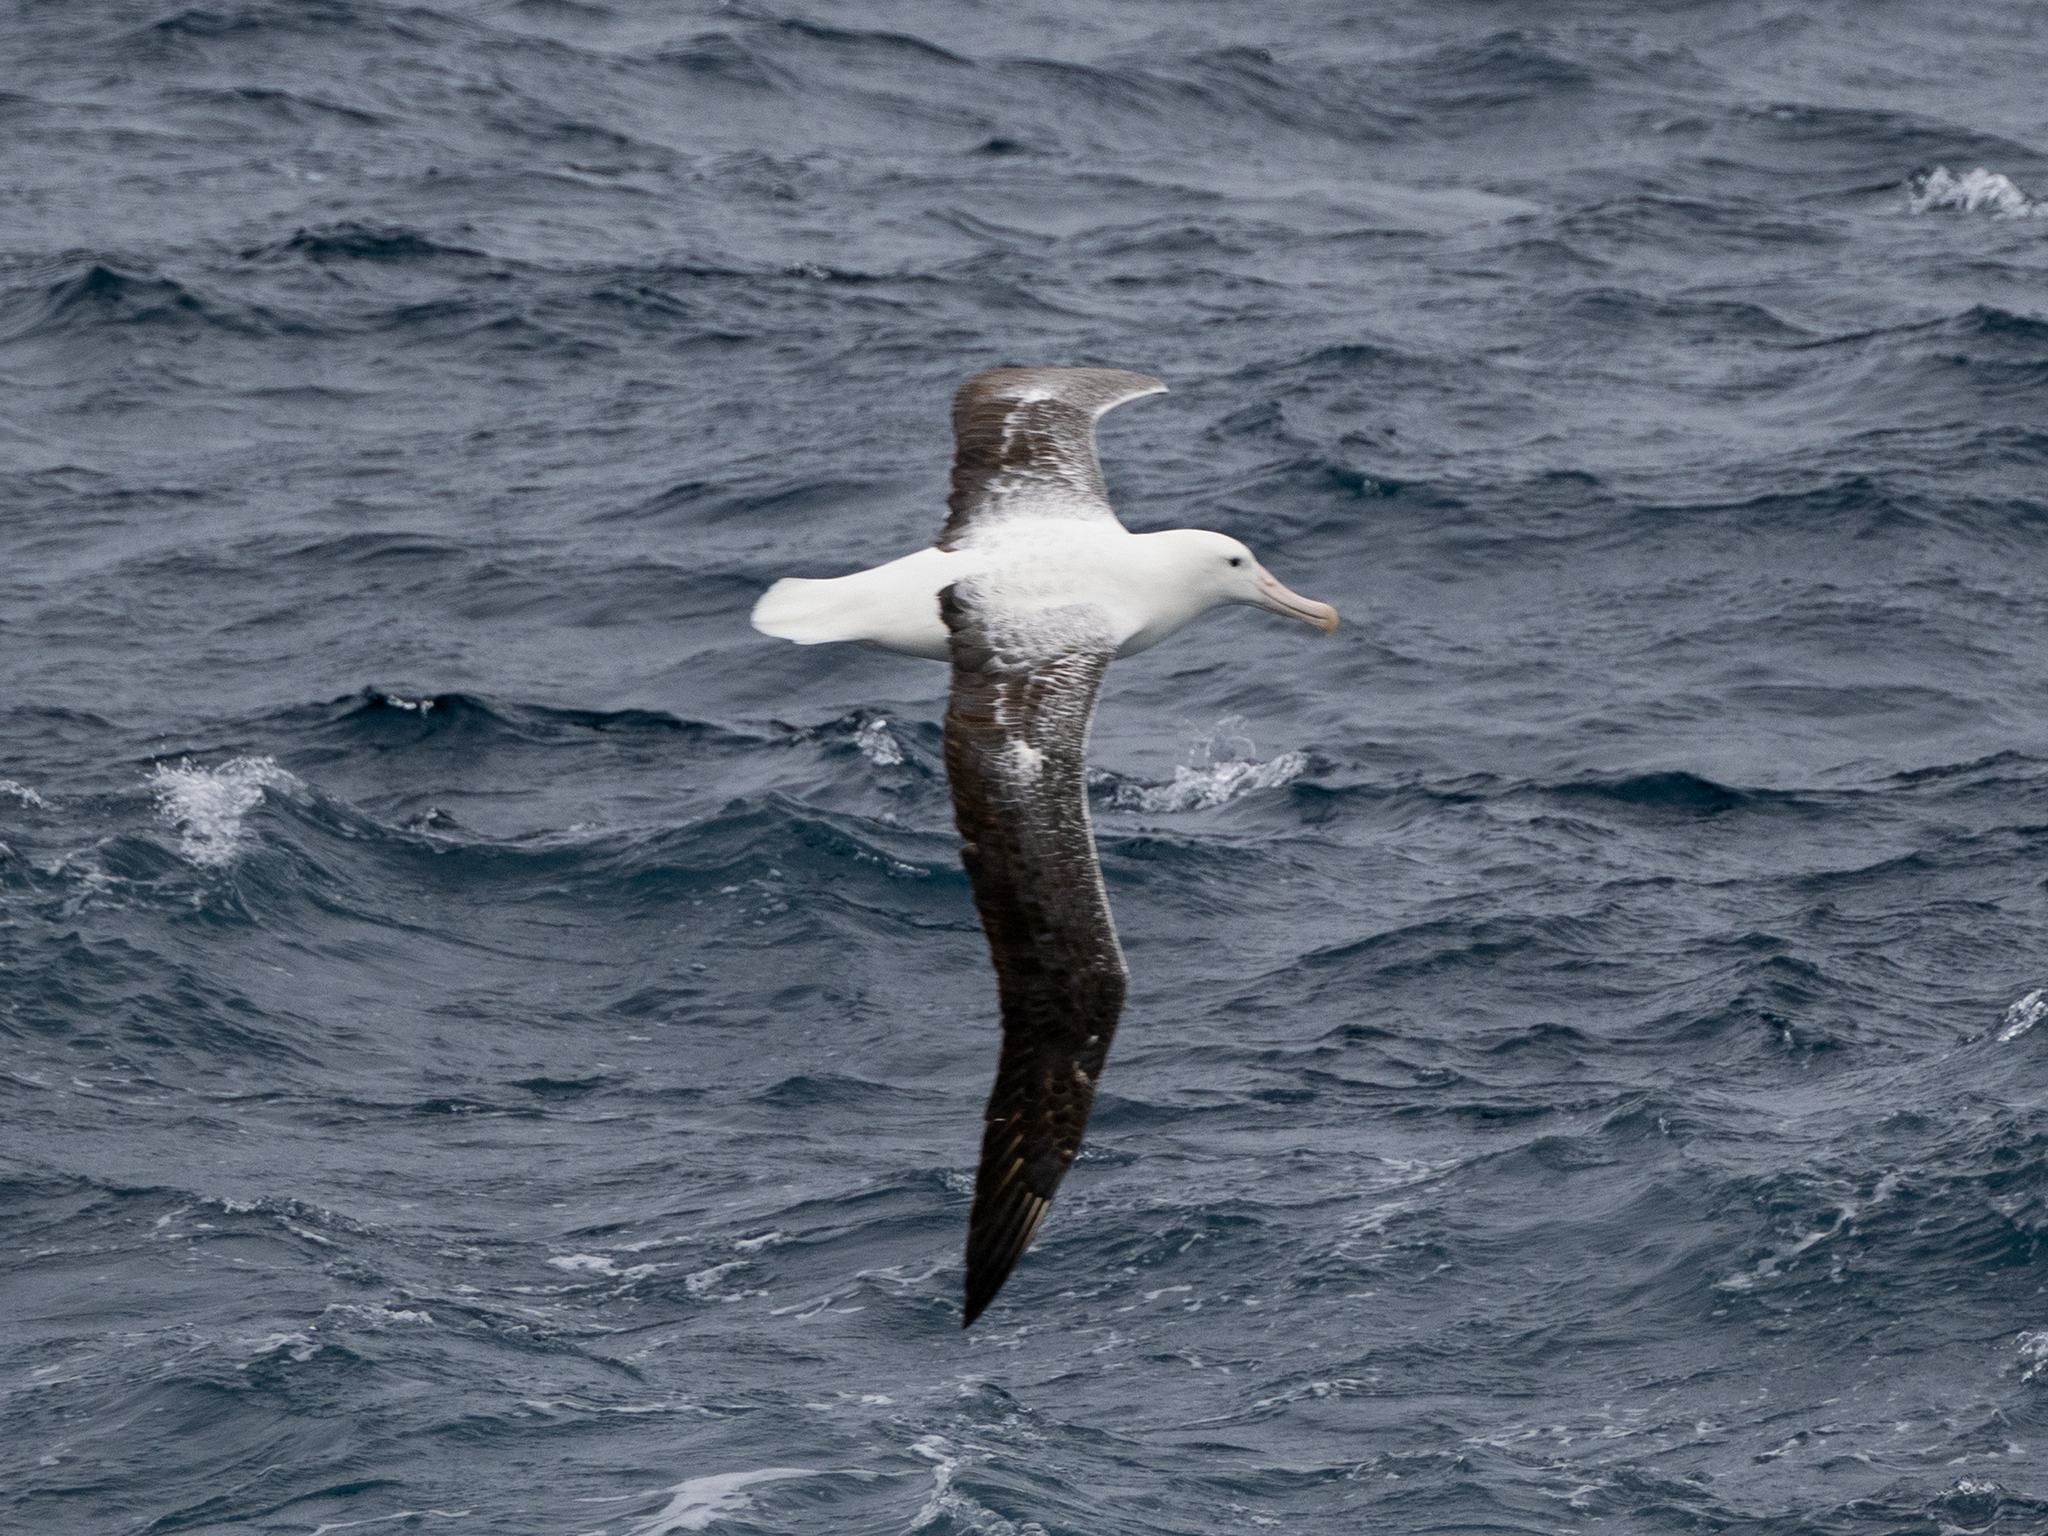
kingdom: Animalia
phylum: Chordata
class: Aves
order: Procellariiformes
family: Diomedeidae
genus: Diomedea
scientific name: Diomedea epomophora
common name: Southern royal albatross
